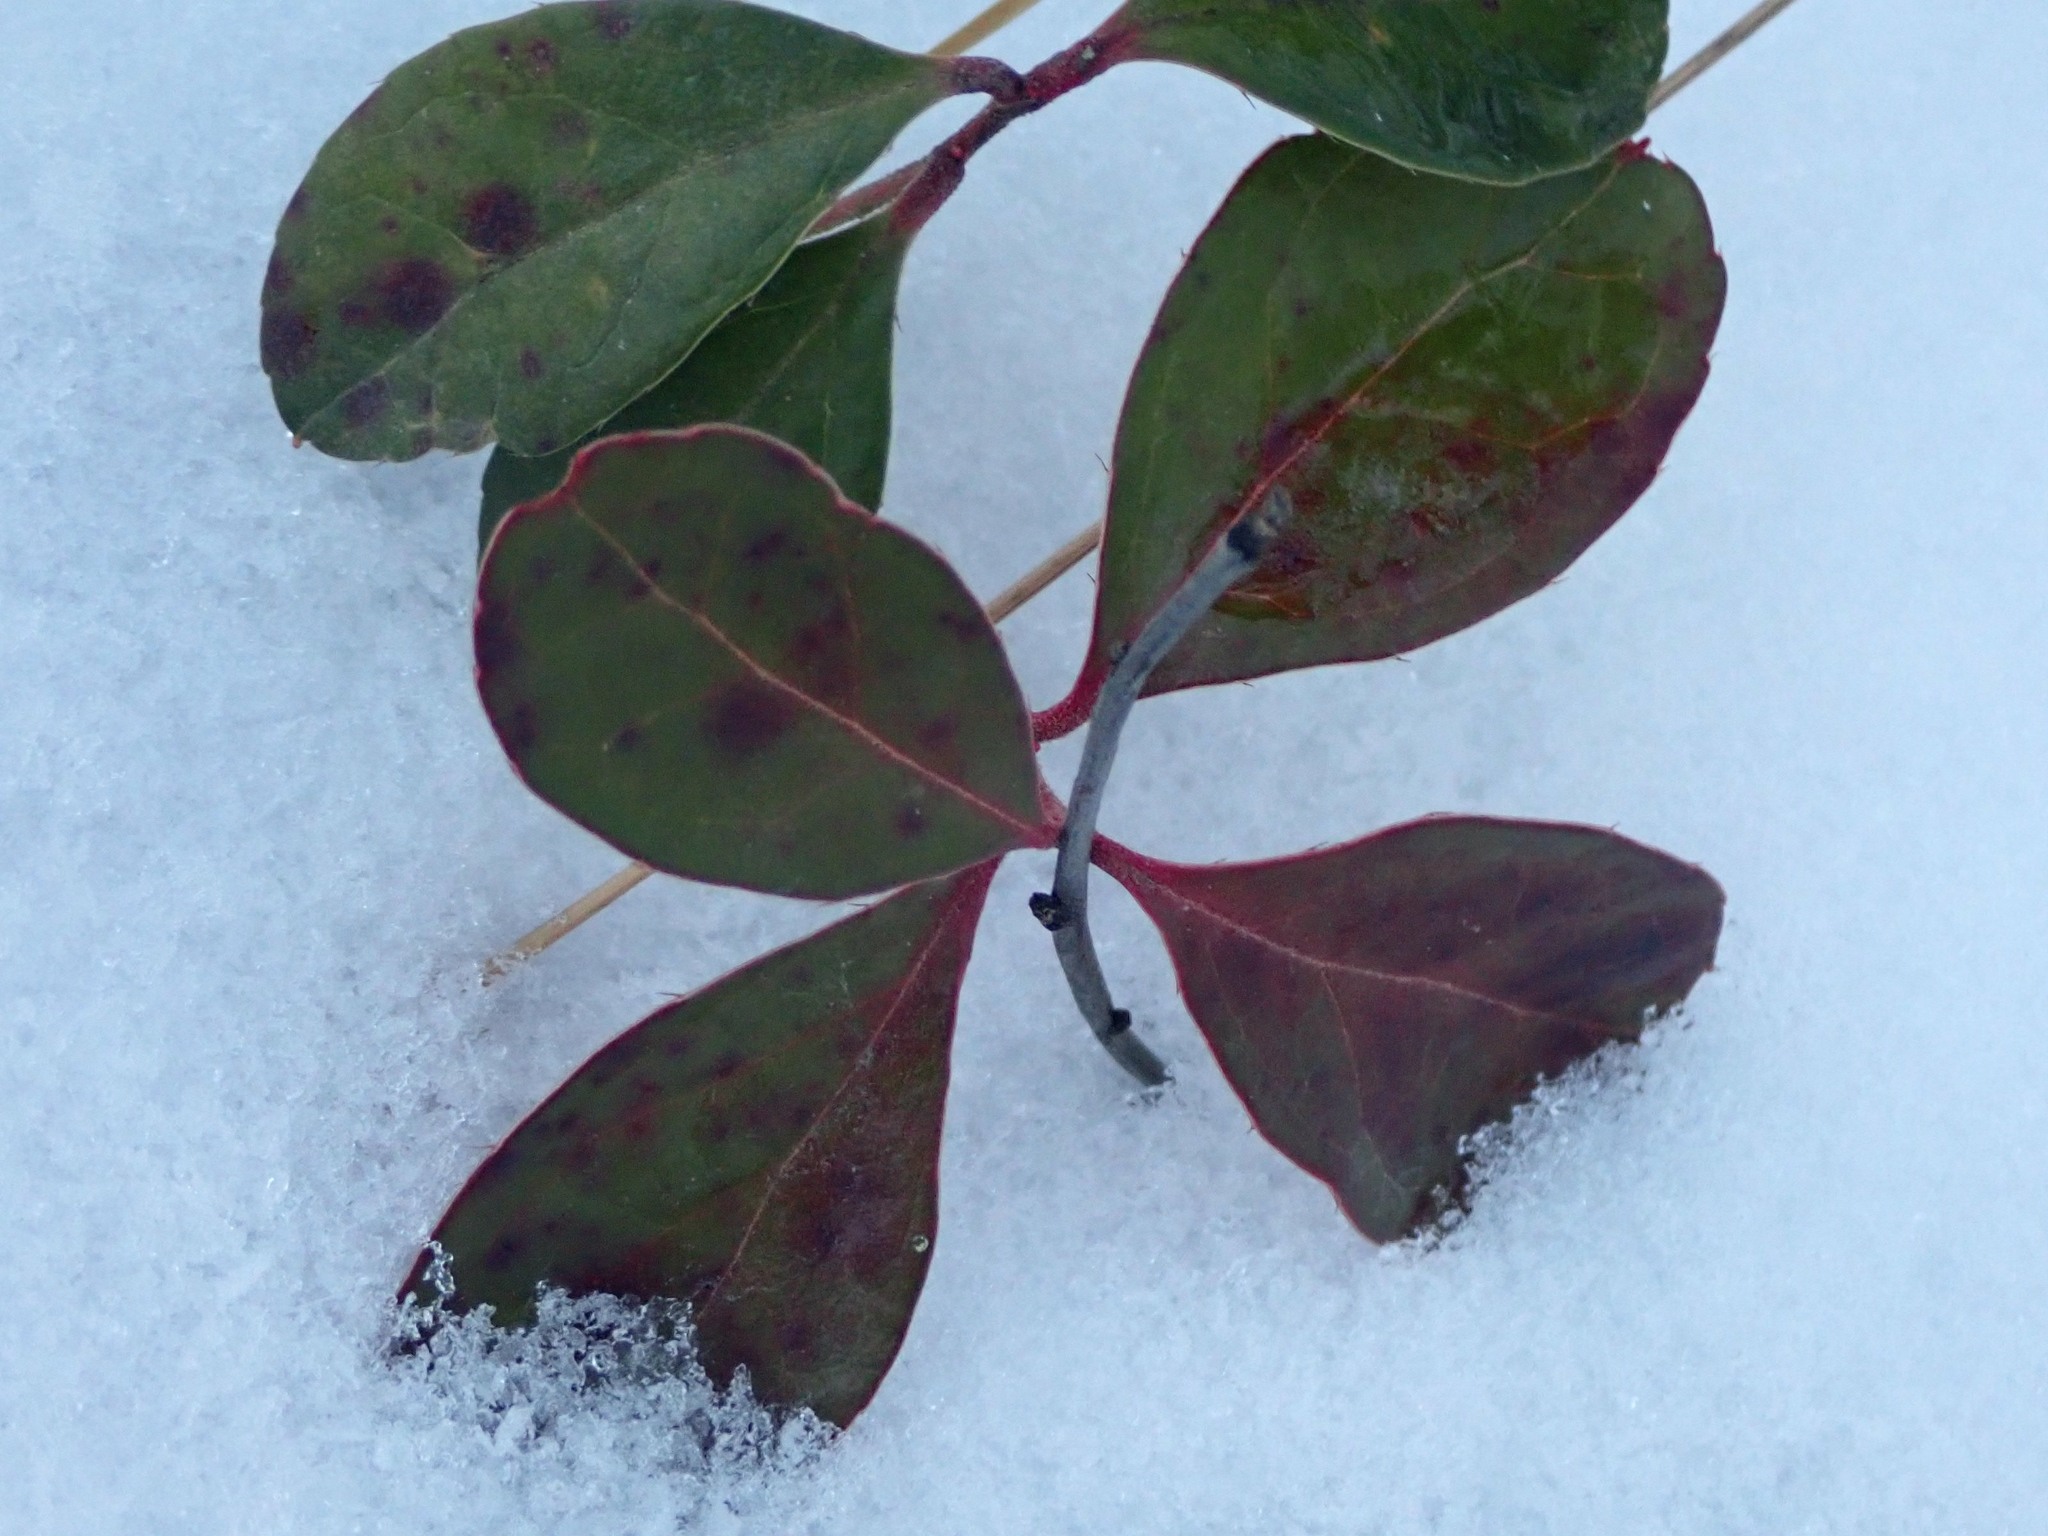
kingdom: Plantae
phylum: Tracheophyta
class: Magnoliopsida
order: Ericales
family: Ericaceae
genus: Gaultheria
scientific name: Gaultheria procumbens
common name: Checkerberry
